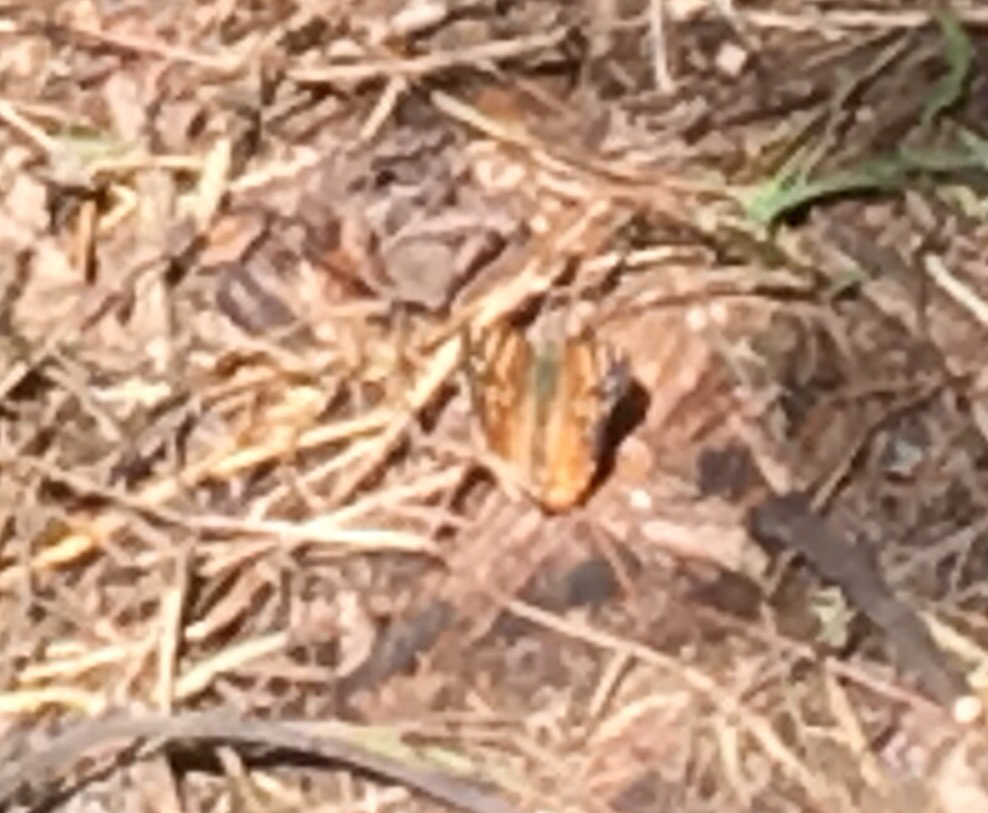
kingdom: Animalia
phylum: Arthropoda
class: Insecta
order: Lepidoptera
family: Nymphalidae
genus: Vanessa
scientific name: Vanessa annabella
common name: West coast lady
